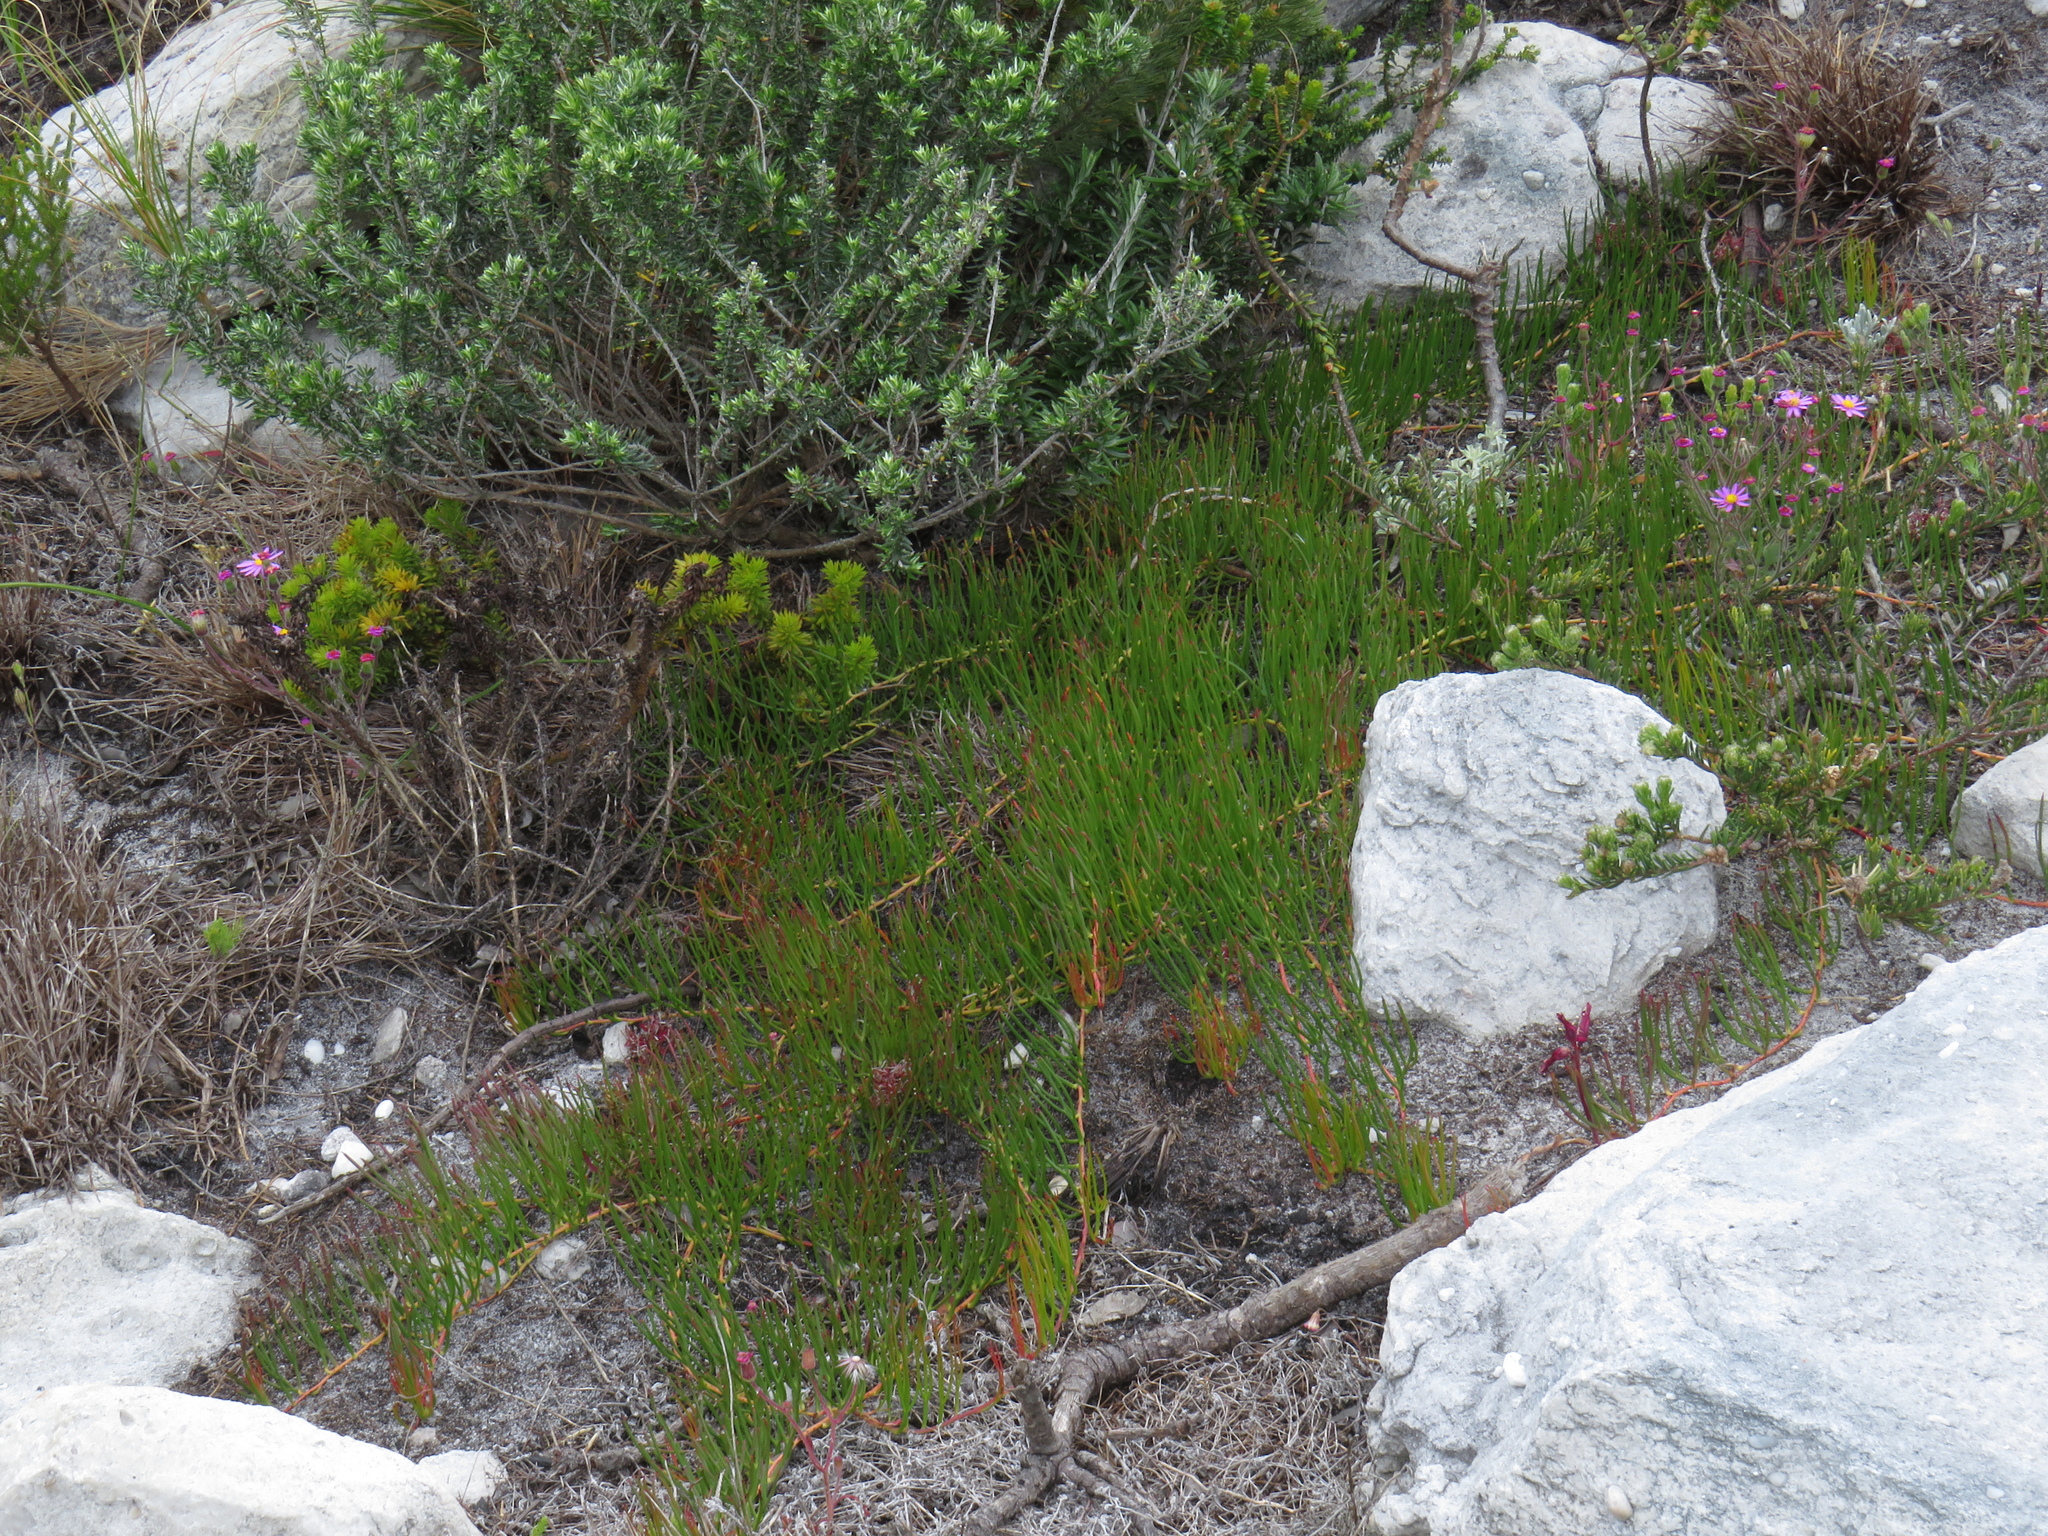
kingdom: Plantae
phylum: Tracheophyta
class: Magnoliopsida
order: Proteales
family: Proteaceae
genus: Serruria
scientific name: Serruria decumbens
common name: Peninsula spiderhead
